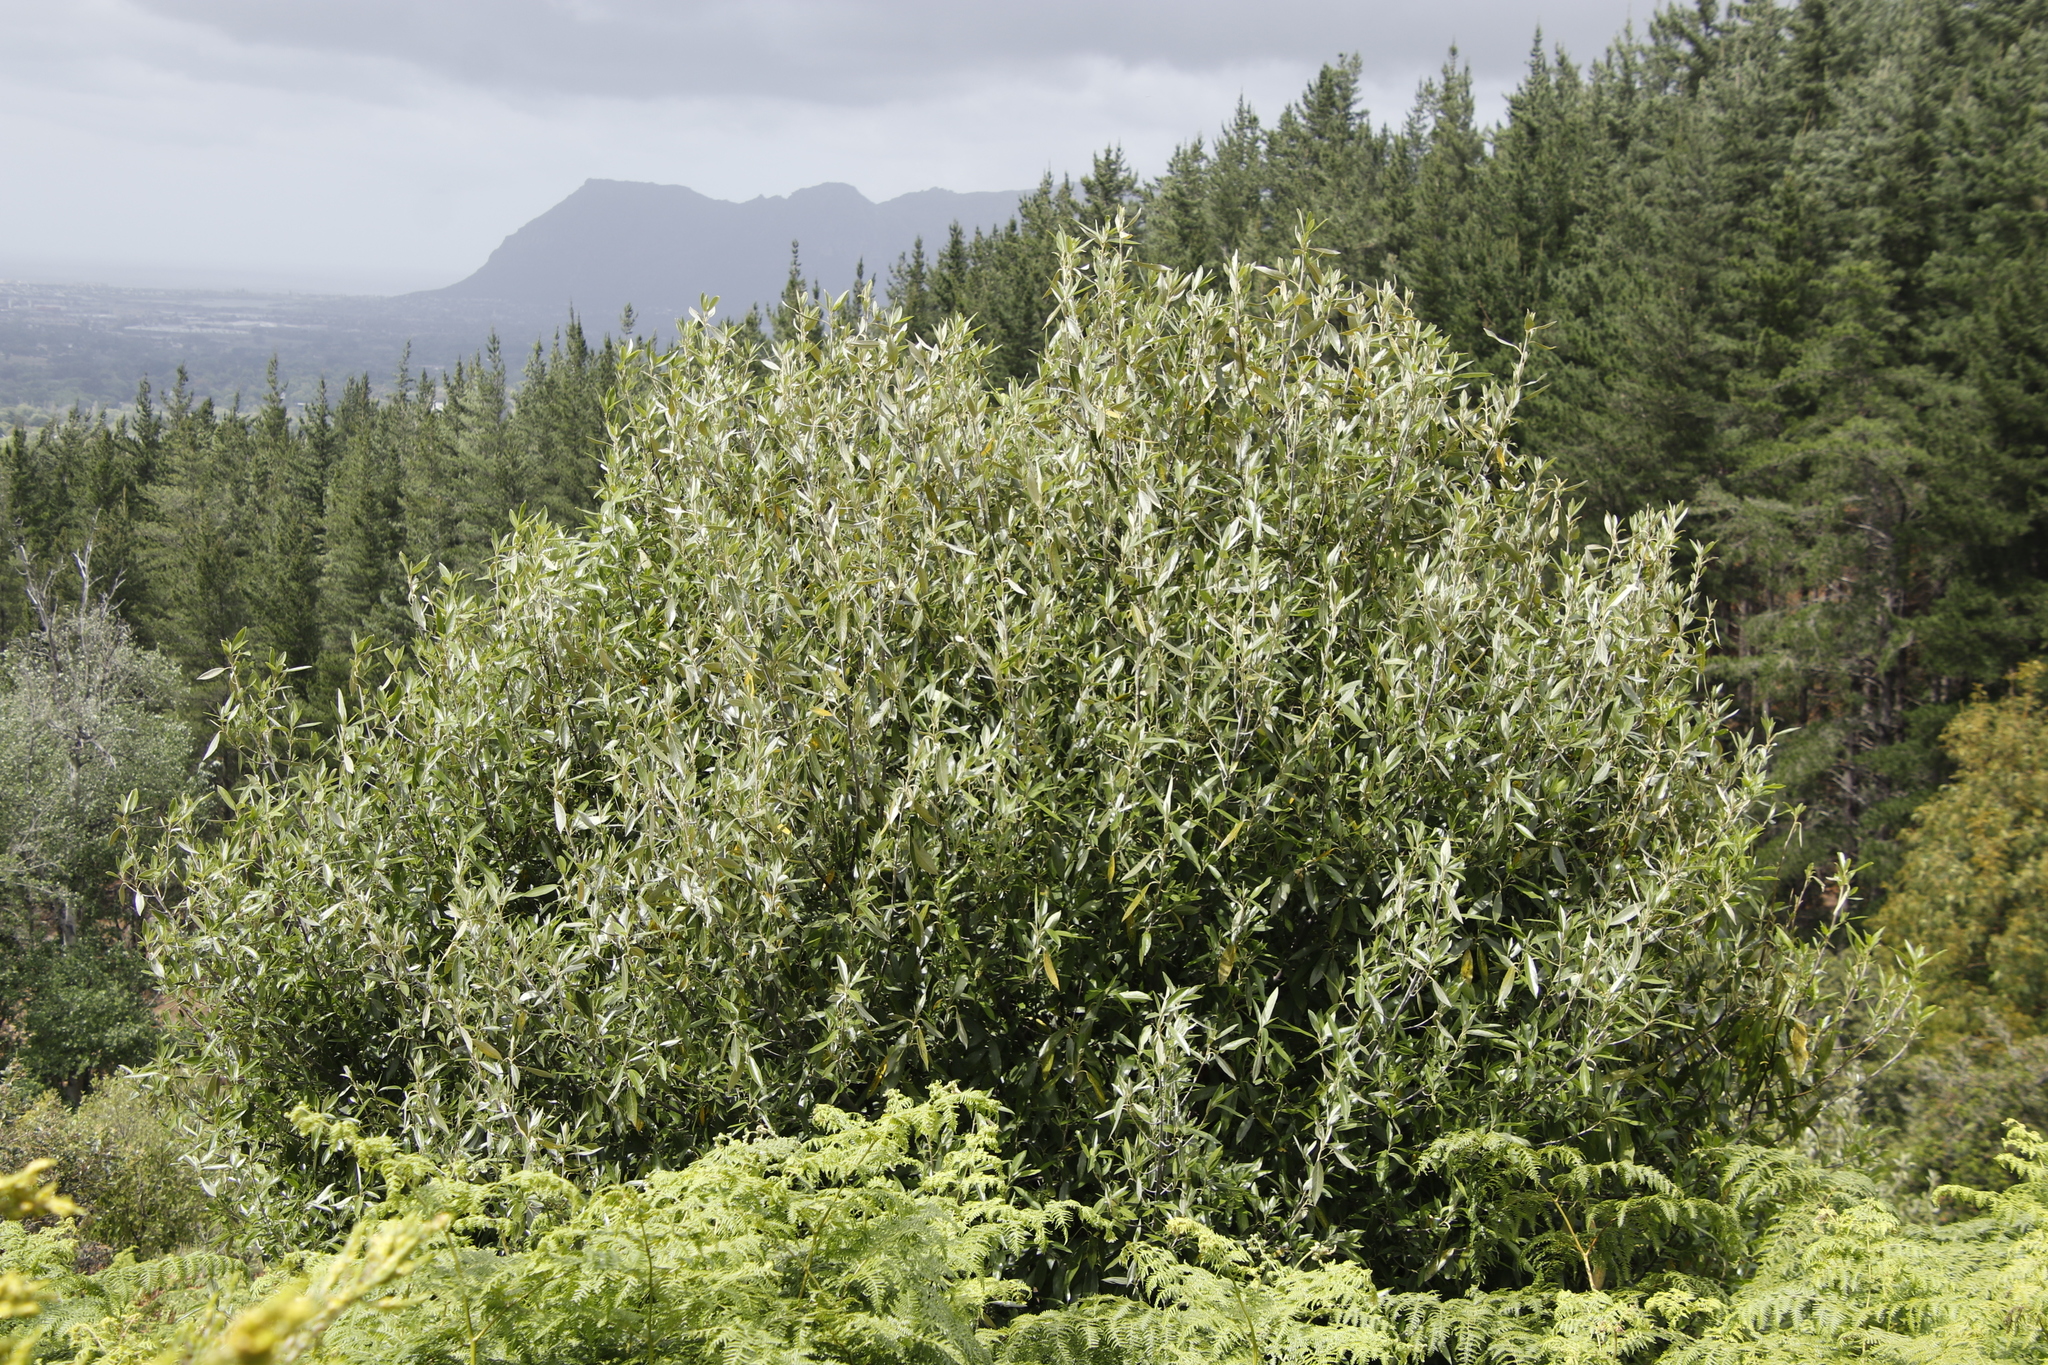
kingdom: Plantae
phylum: Tracheophyta
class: Magnoliopsida
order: Malpighiales
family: Achariaceae
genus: Kiggelaria
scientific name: Kiggelaria africana
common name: Wild peach
